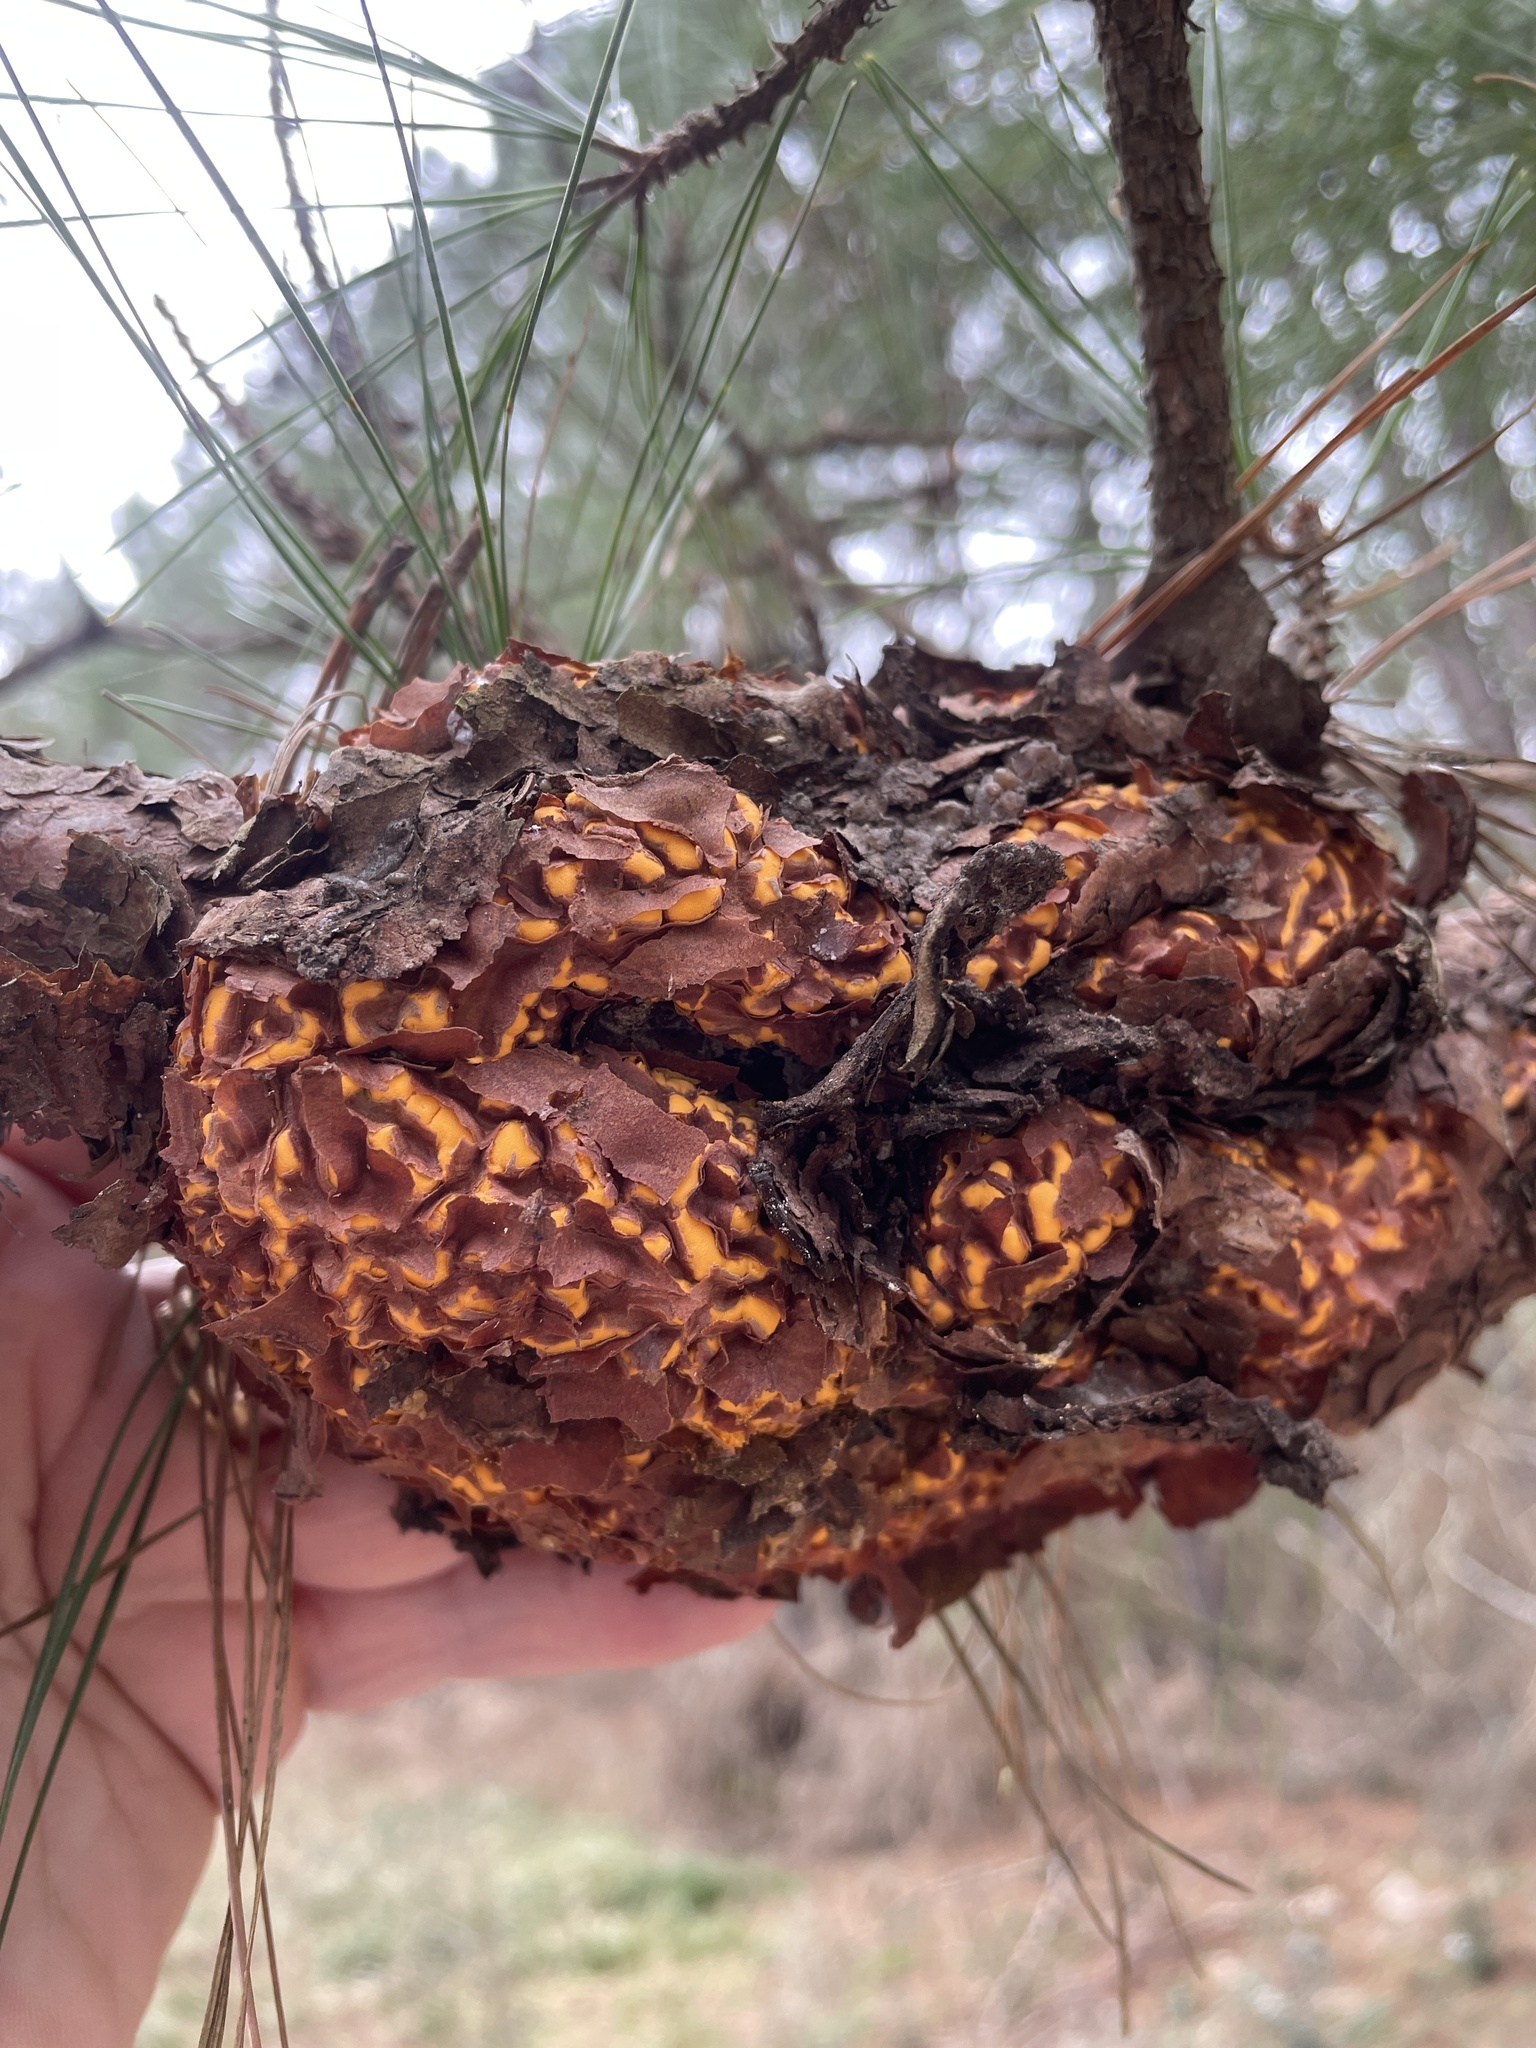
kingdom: Fungi
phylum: Basidiomycota
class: Pucciniomycetes
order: Pucciniales
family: Cronartiaceae
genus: Cronartium
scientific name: Cronartium fusiforme
